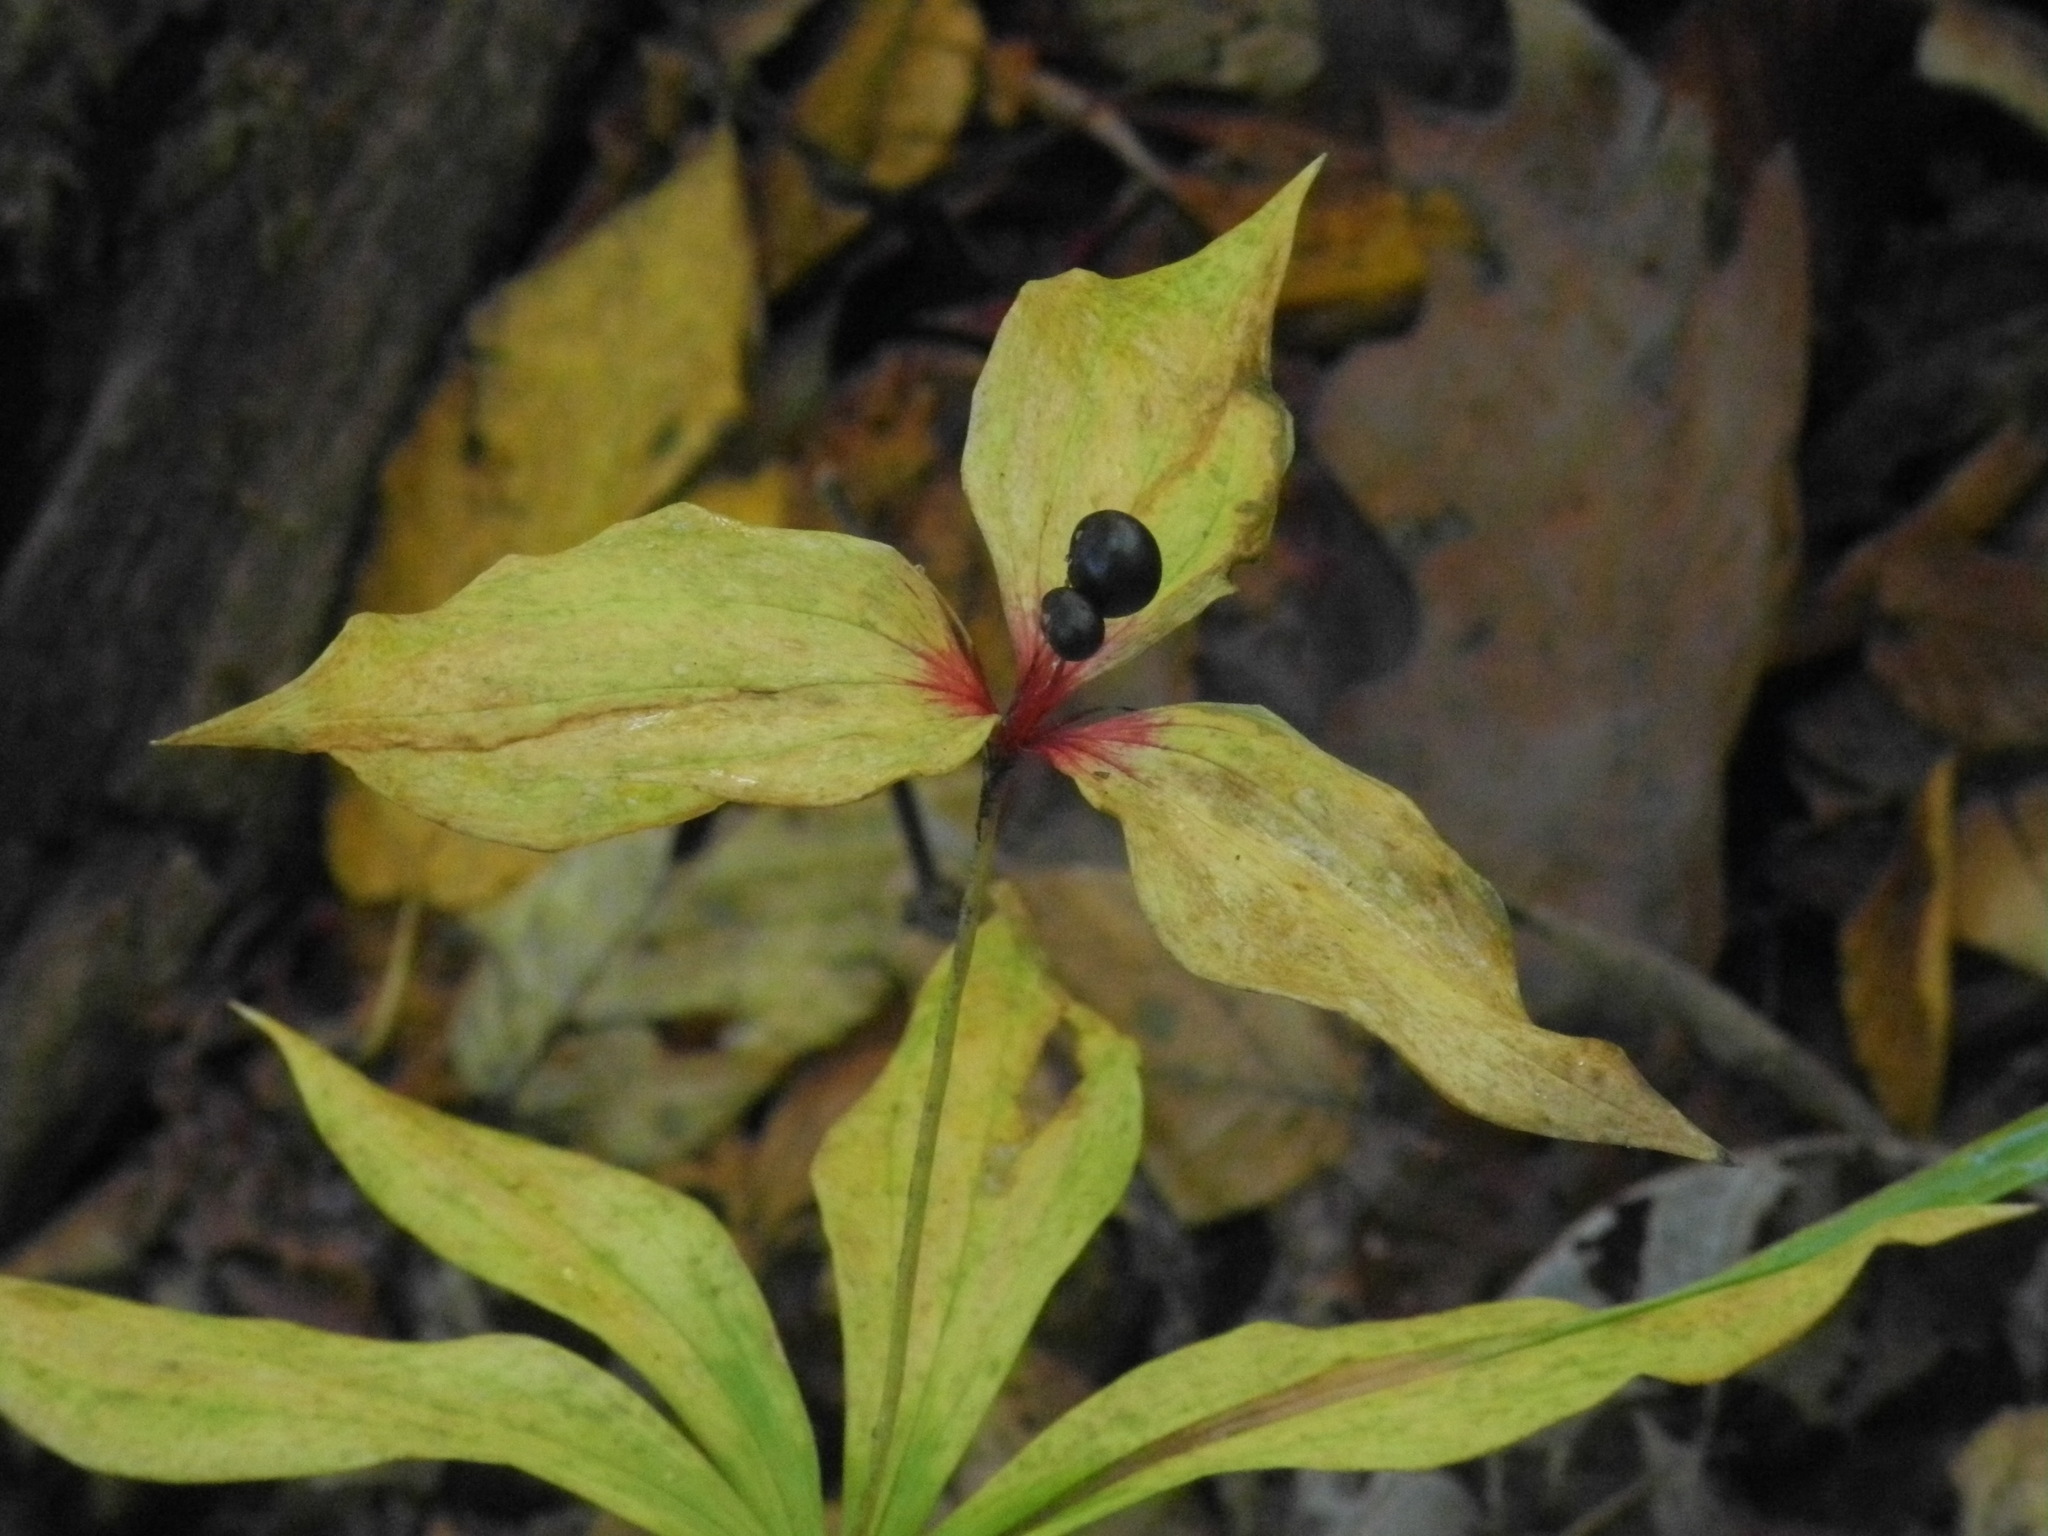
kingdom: Plantae
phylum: Tracheophyta
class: Liliopsida
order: Liliales
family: Liliaceae
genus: Medeola
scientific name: Medeola virginiana
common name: Indian cucumber-root
